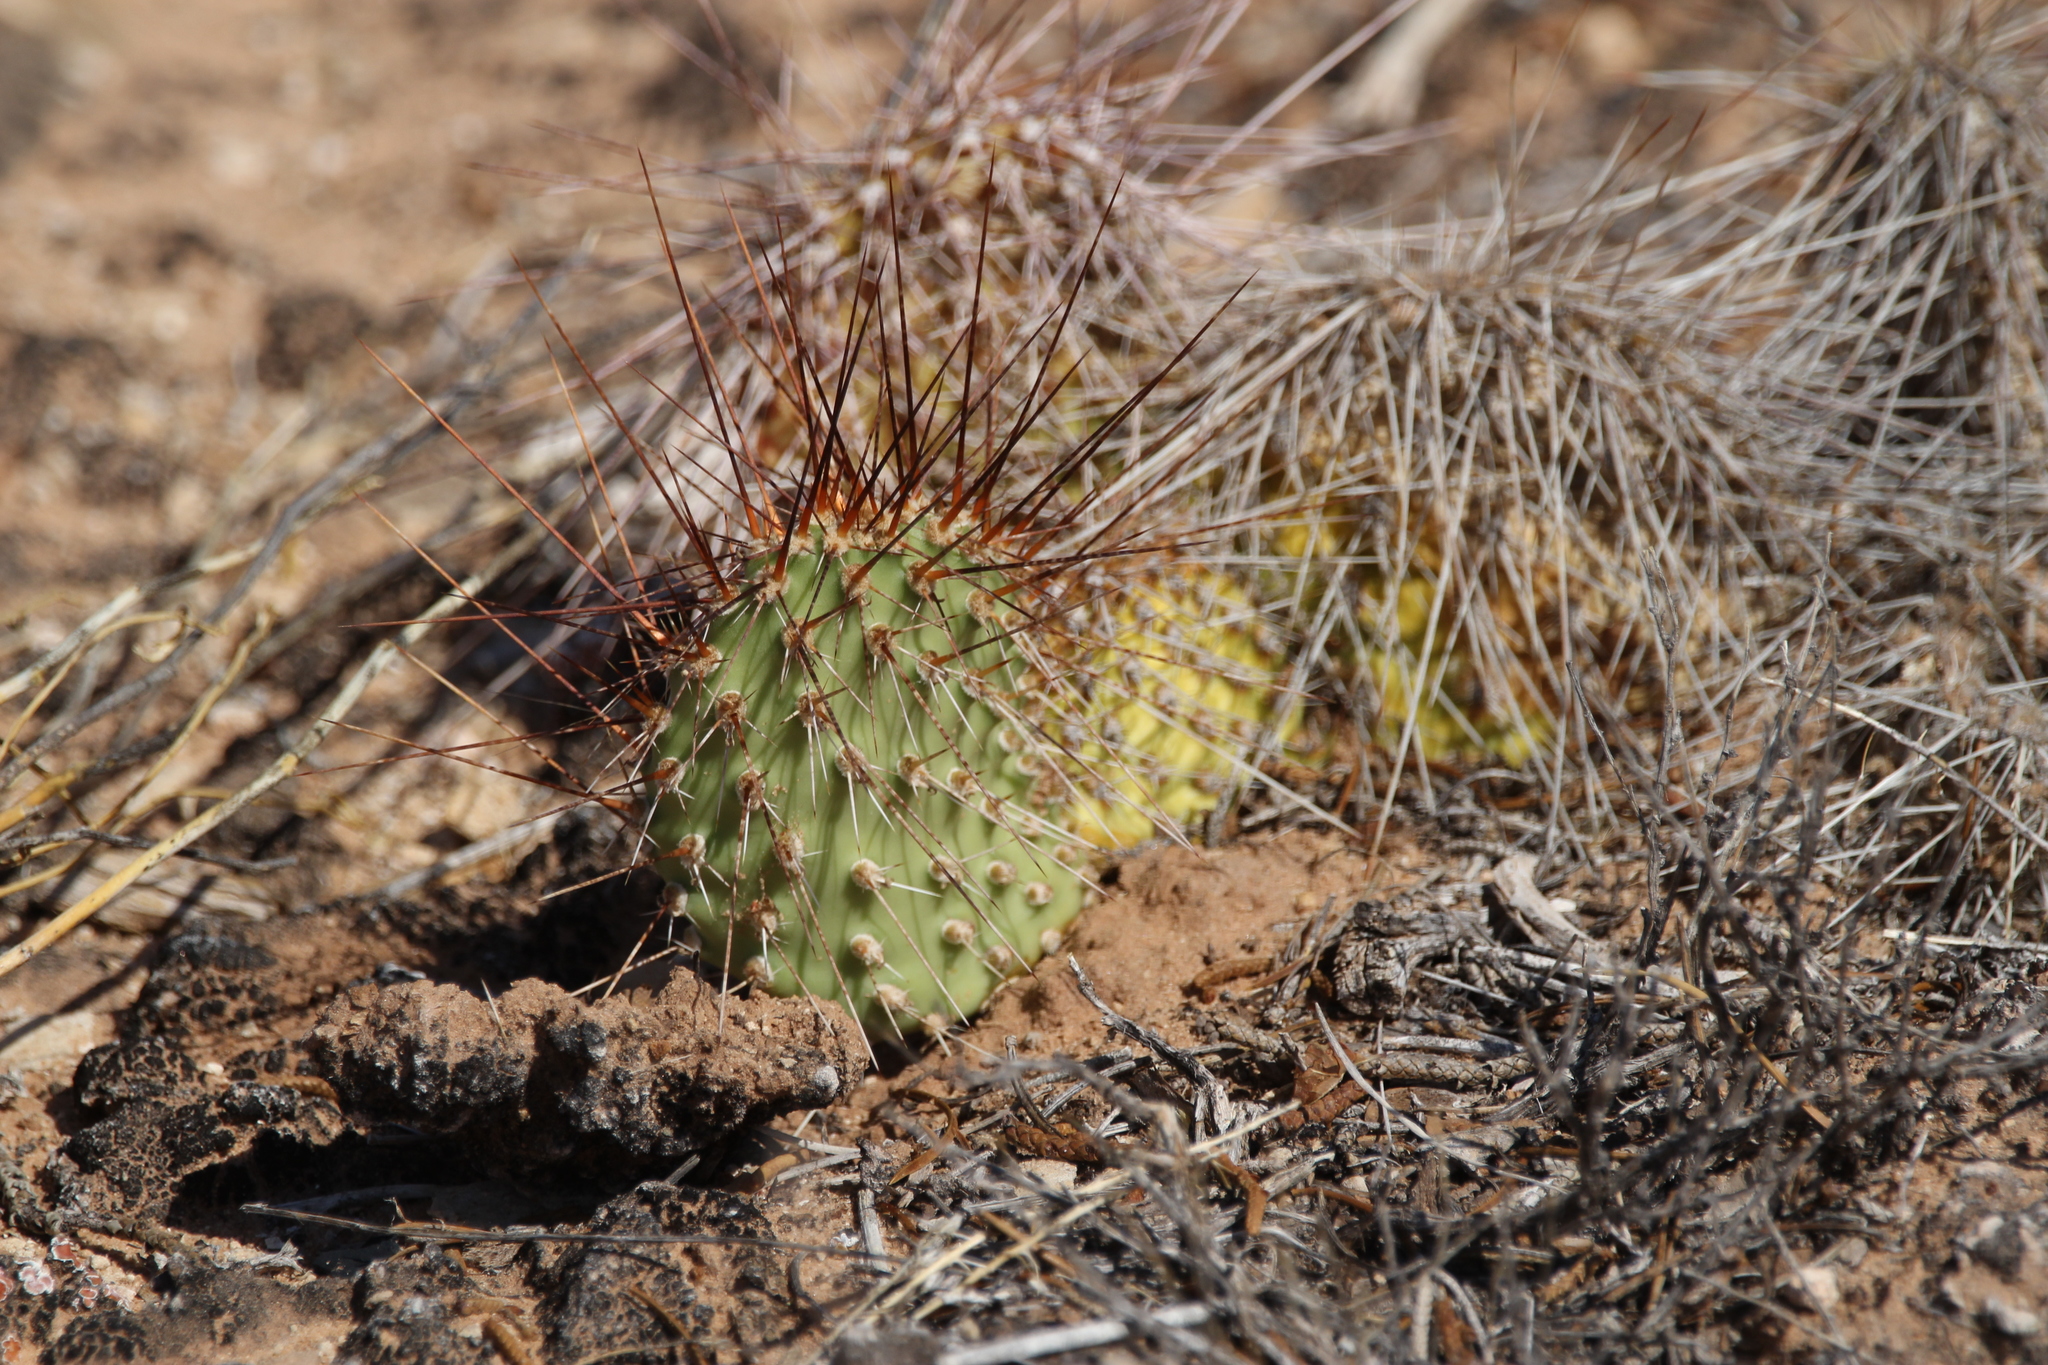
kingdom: Plantae
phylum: Tracheophyta
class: Magnoliopsida
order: Caryophyllales
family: Cactaceae
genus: Opuntia
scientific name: Opuntia polyacantha
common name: Plains prickly-pear
